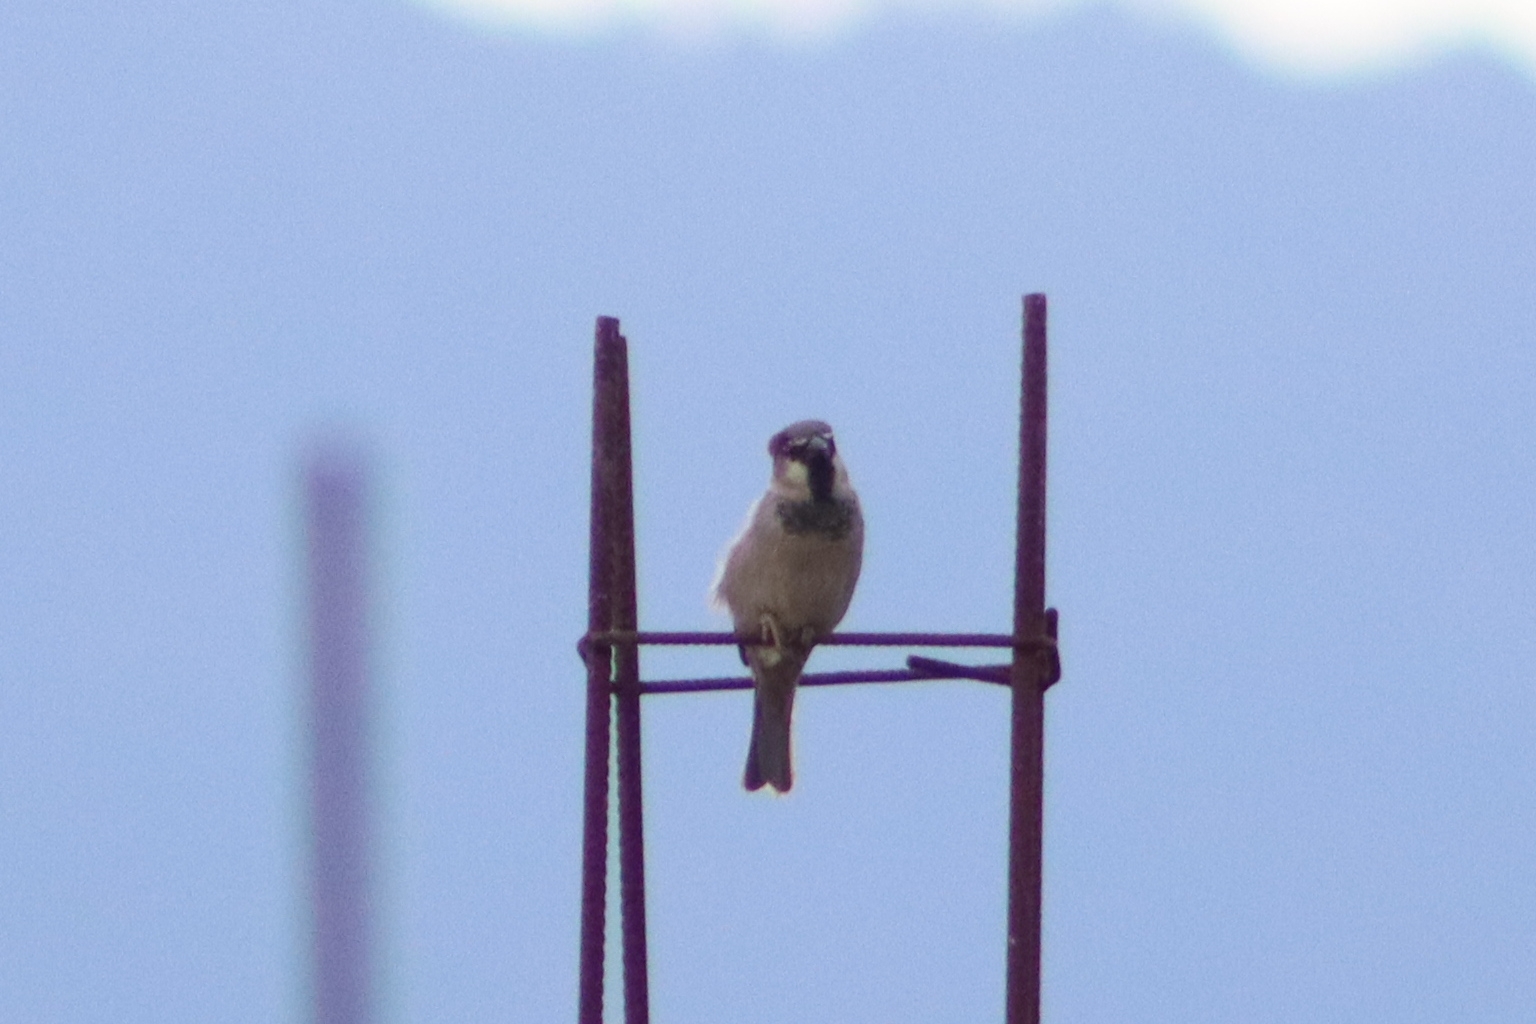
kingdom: Animalia
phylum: Chordata
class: Aves
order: Passeriformes
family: Passeridae
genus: Passer
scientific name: Passer domesticus
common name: House sparrow
